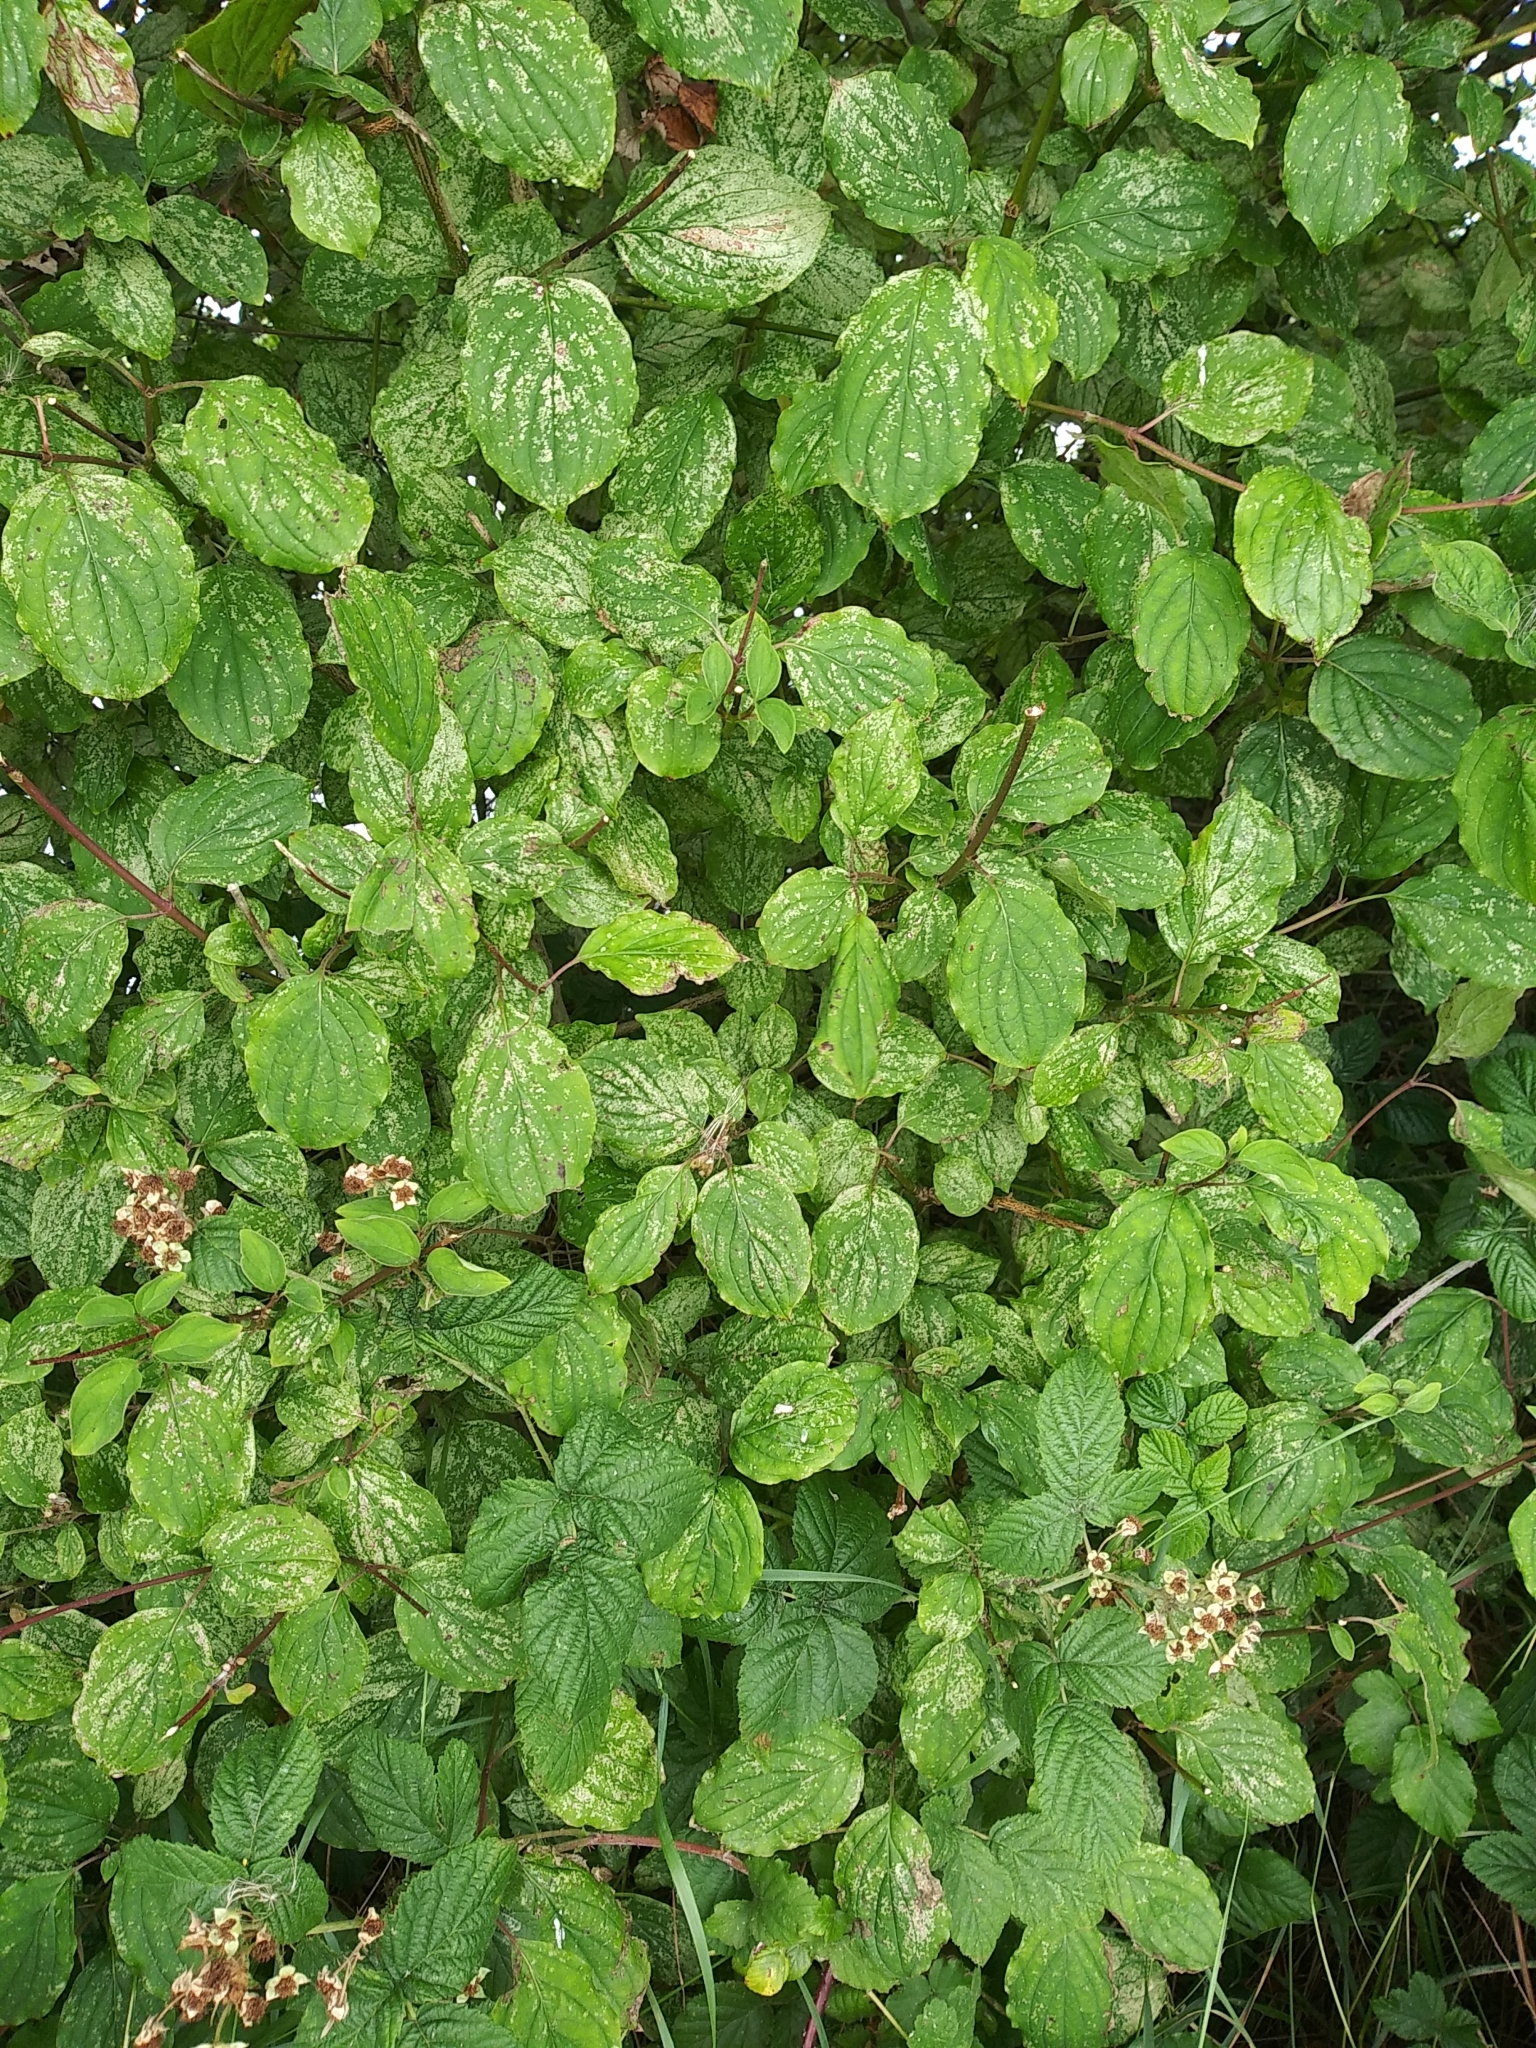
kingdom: Plantae
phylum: Tracheophyta
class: Magnoliopsida
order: Cornales
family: Cornaceae
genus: Cornus
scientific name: Cornus sanguinea
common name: Dogwood
